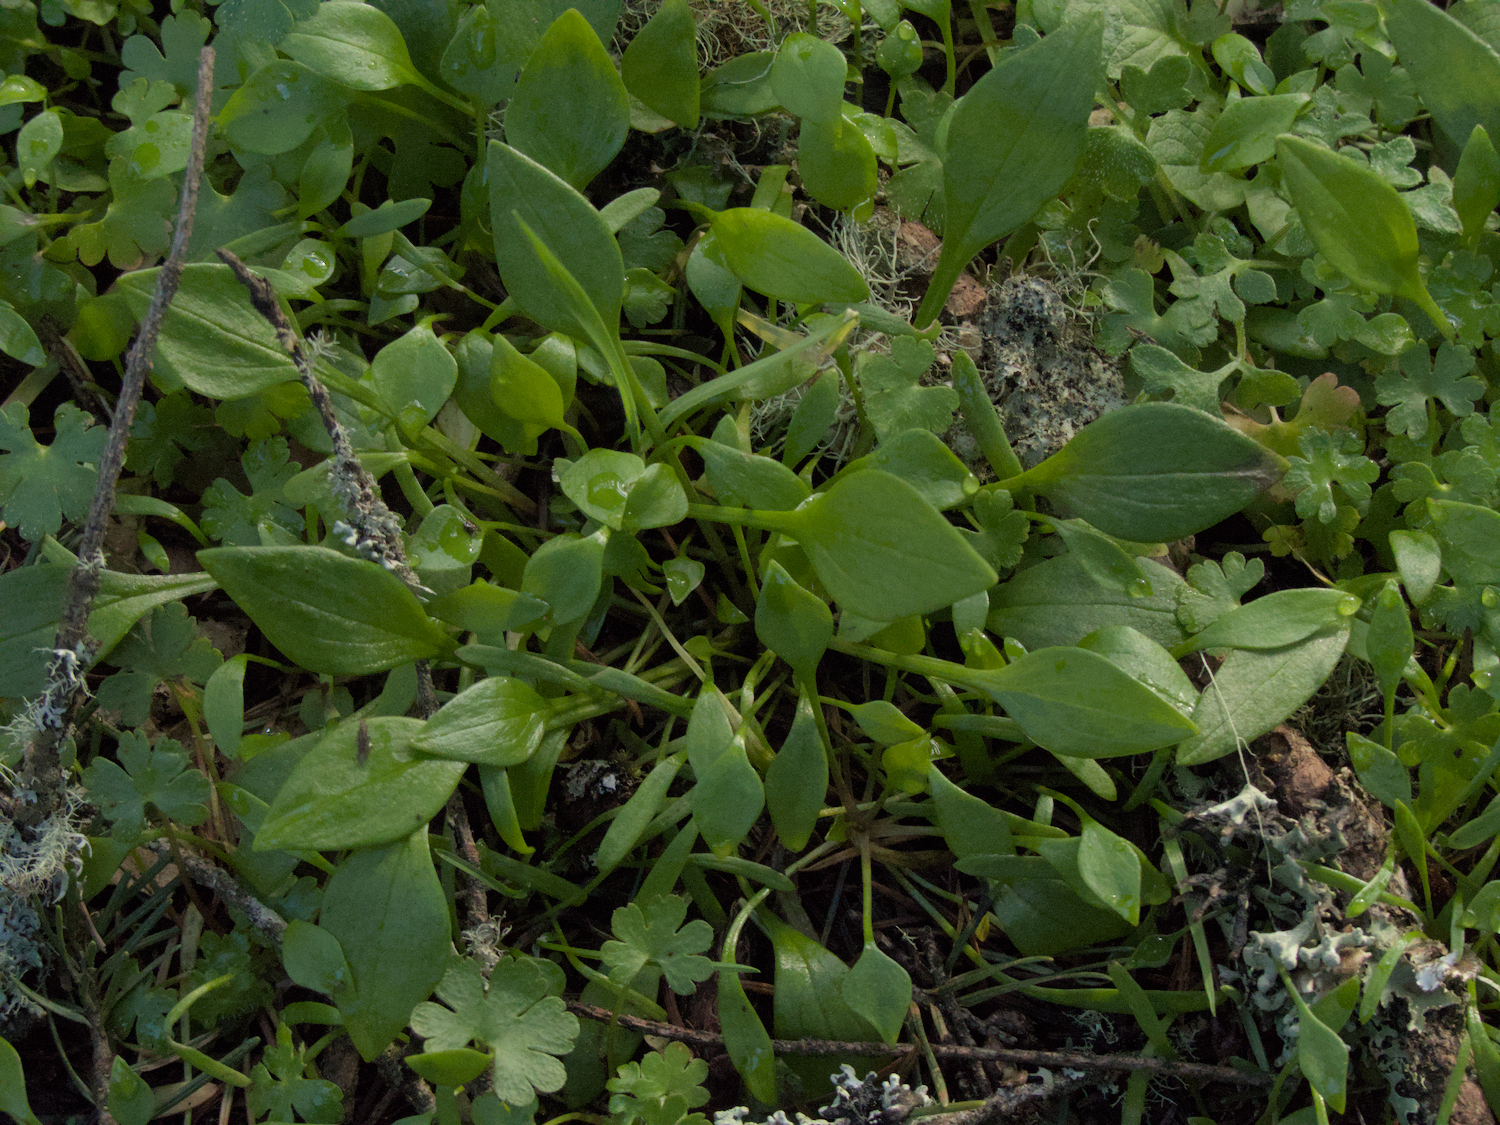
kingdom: Plantae
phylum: Tracheophyta
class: Magnoliopsida
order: Caryophyllales
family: Montiaceae
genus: Claytonia
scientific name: Claytonia perfoliata
